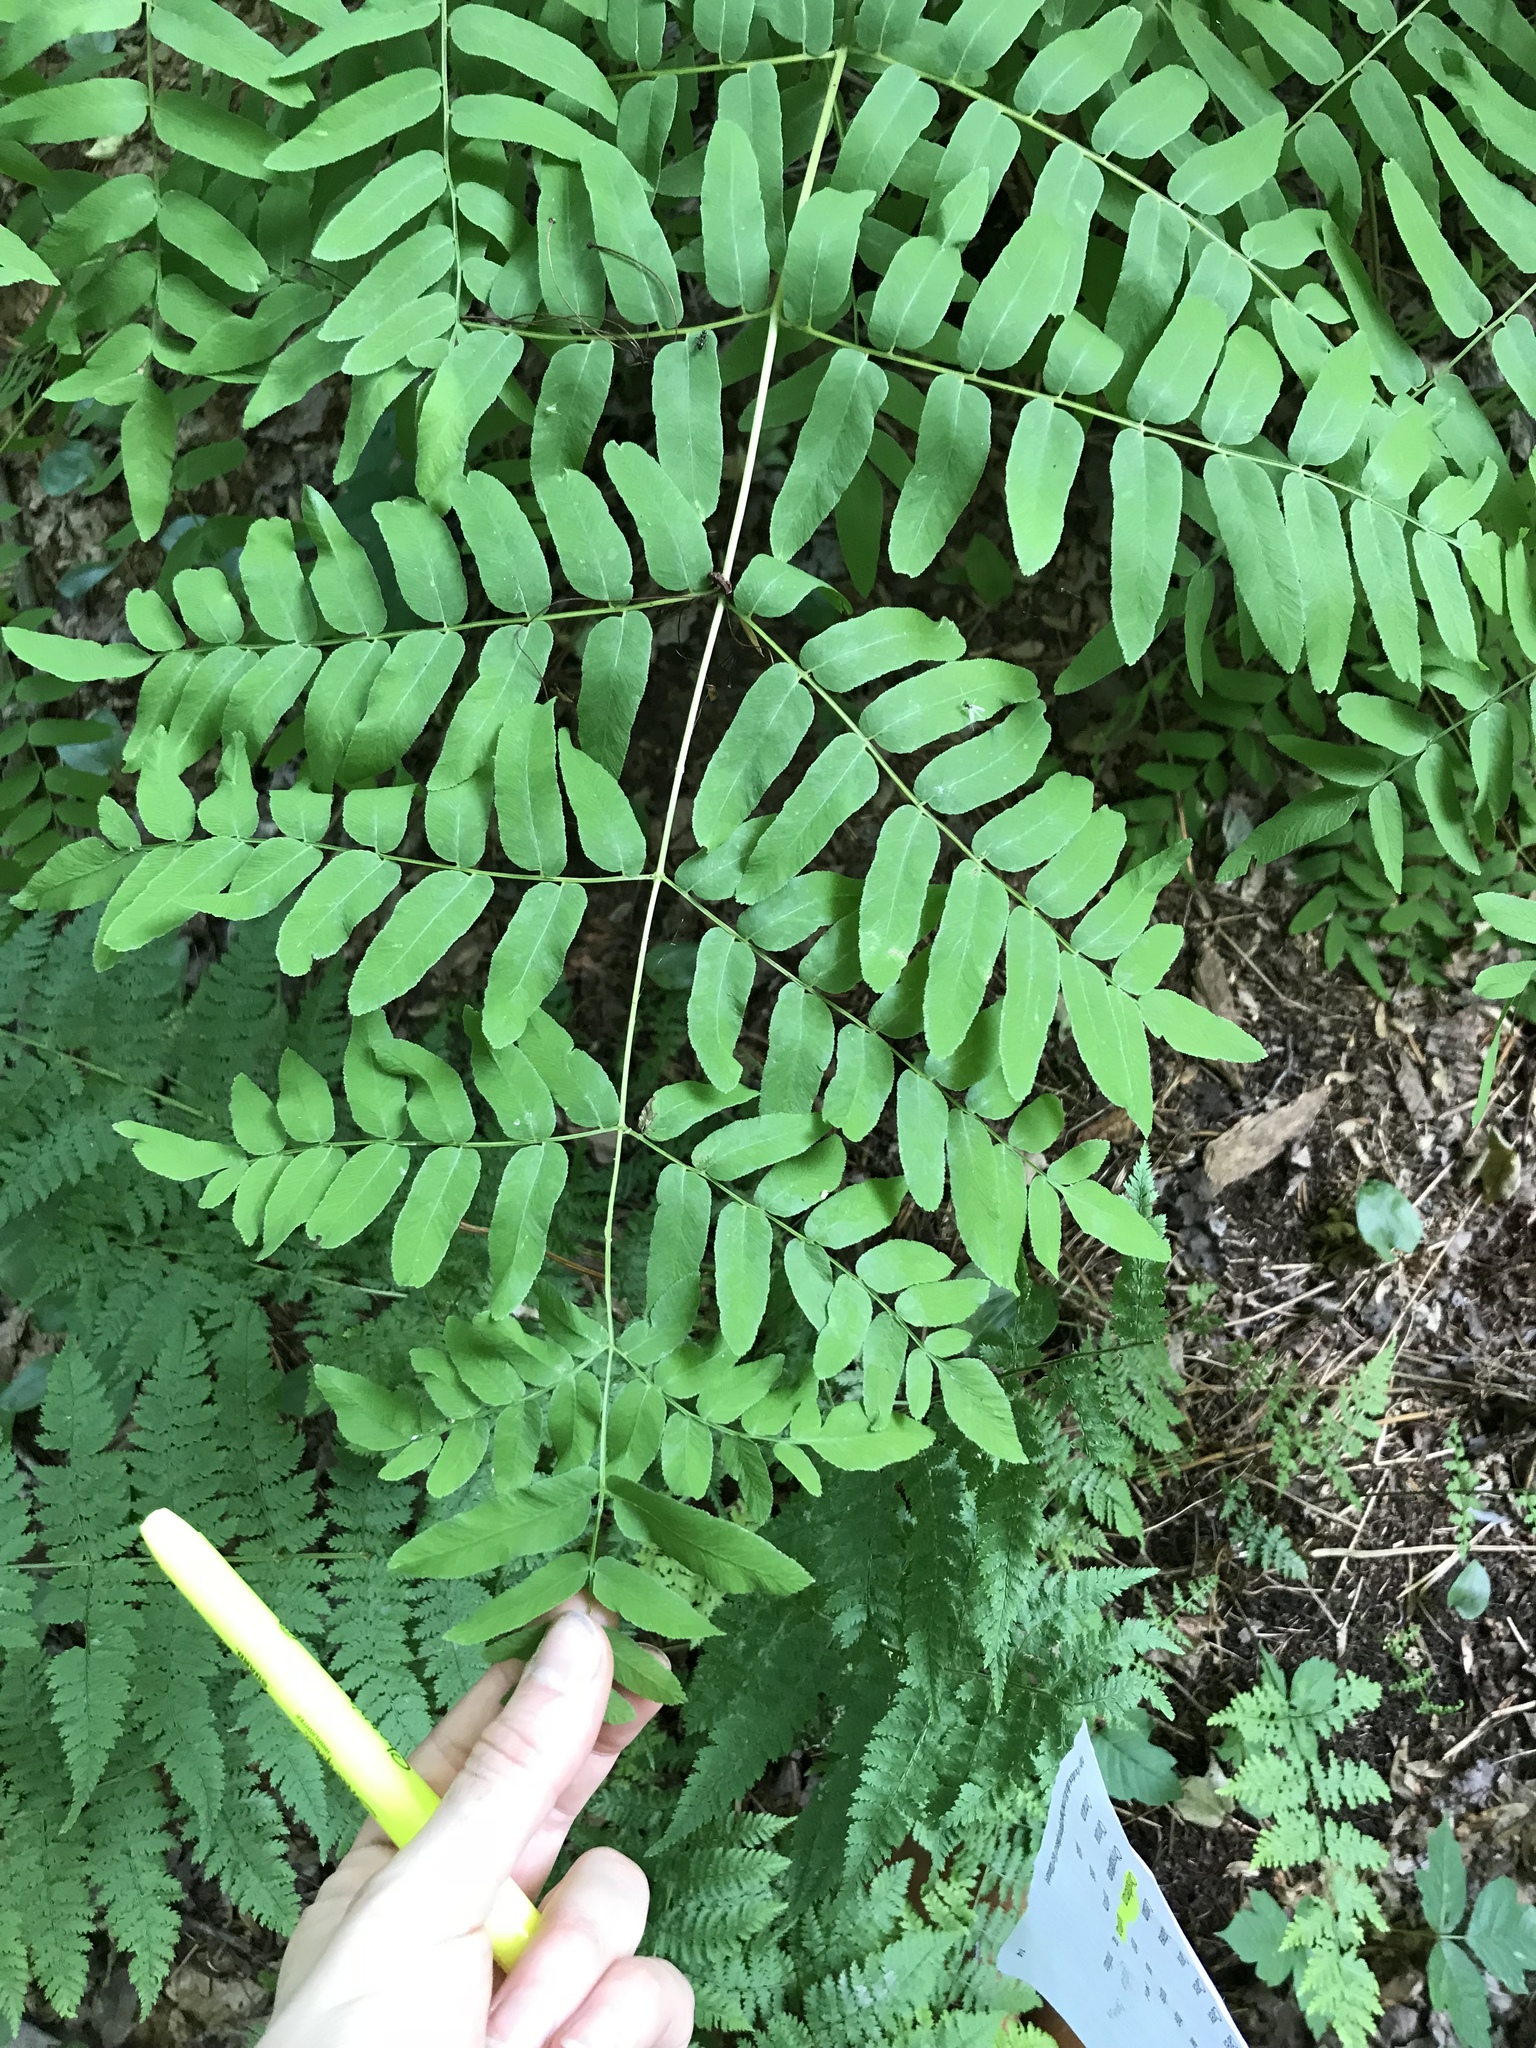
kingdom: Plantae
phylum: Tracheophyta
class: Polypodiopsida
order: Osmundales
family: Osmundaceae
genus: Osmunda
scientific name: Osmunda spectabilis
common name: American royal fern
